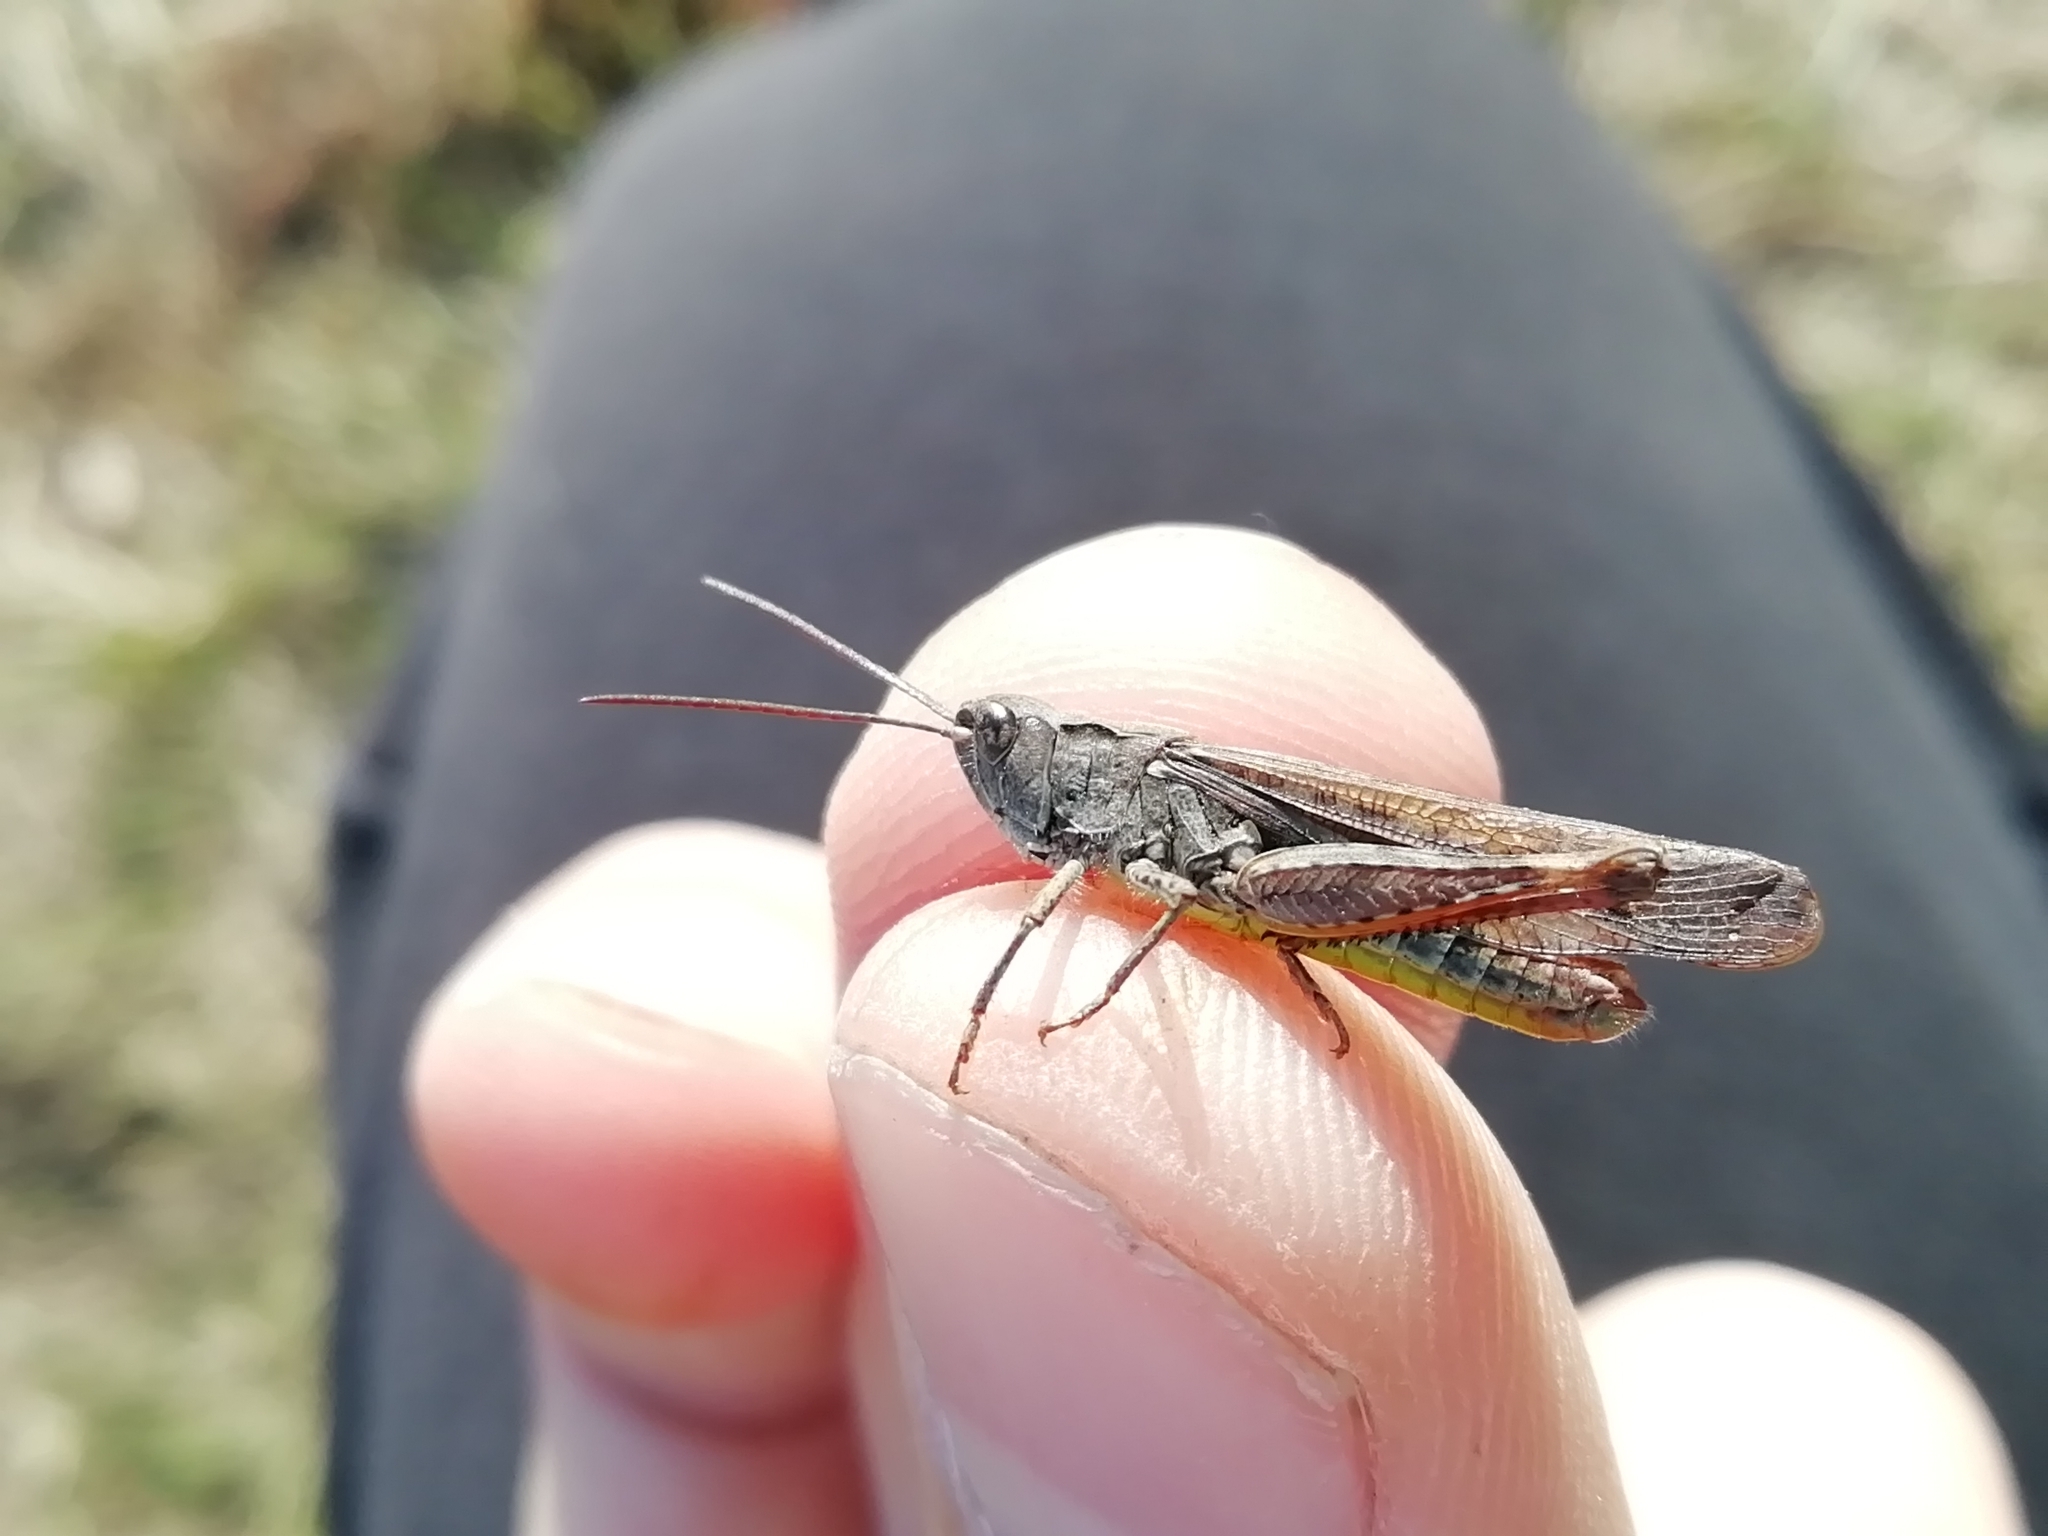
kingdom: Animalia
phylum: Arthropoda
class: Insecta
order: Orthoptera
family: Acrididae
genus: Chorthippus
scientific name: Chorthippus biguttulus
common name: Bow-winged grasshopper
